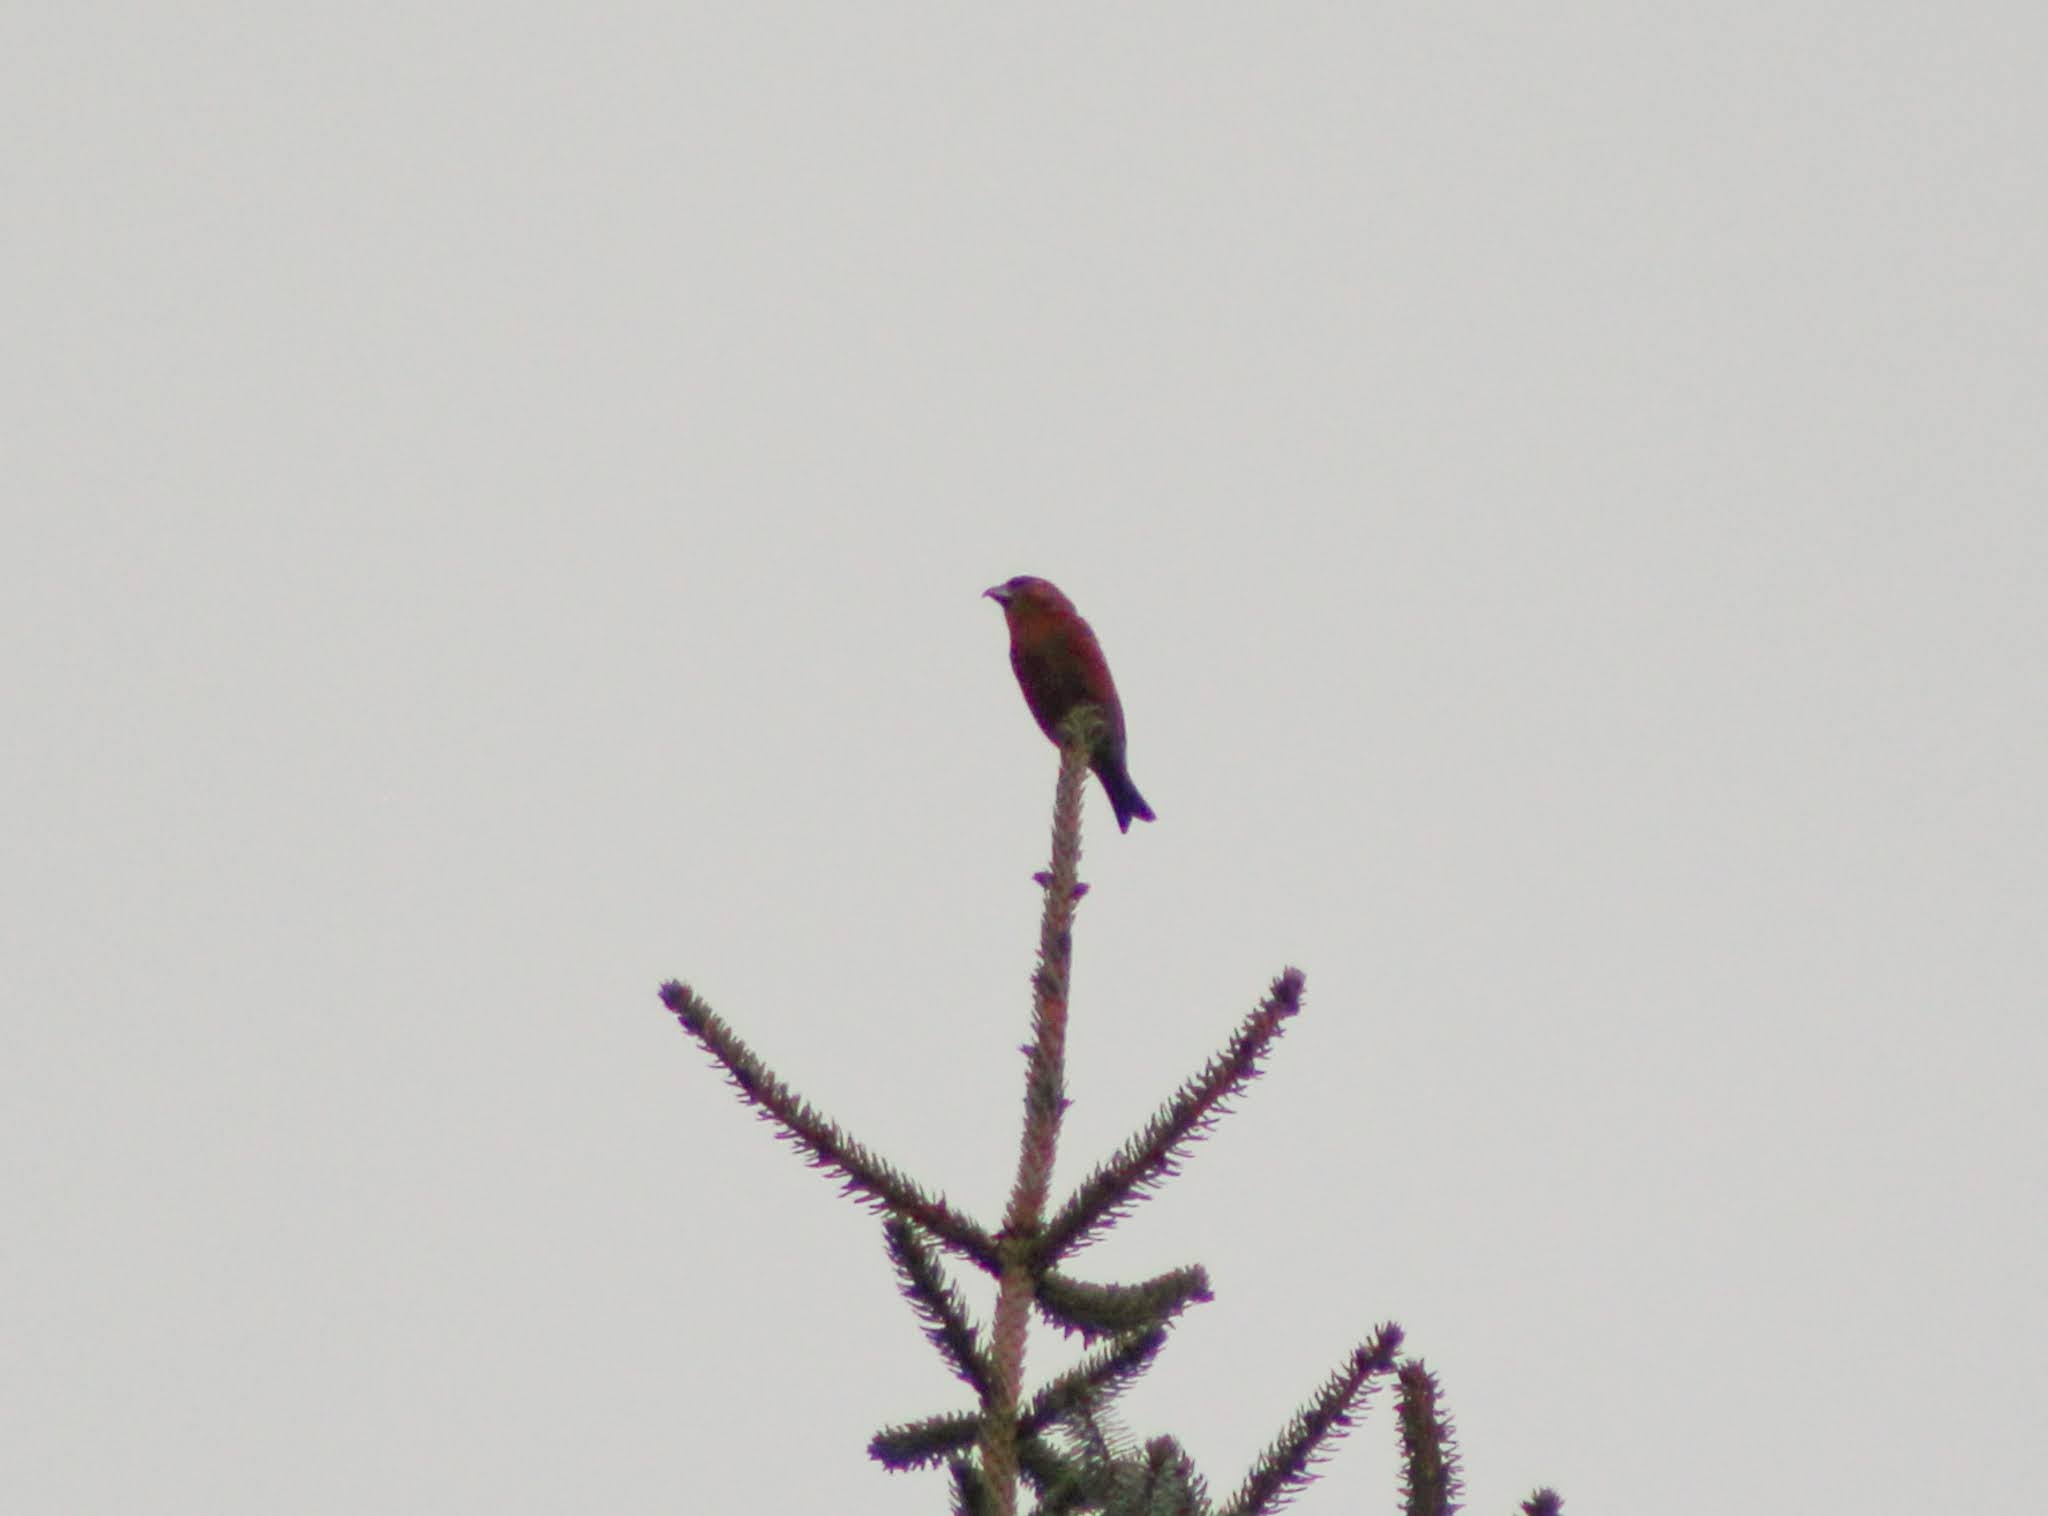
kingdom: Animalia
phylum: Chordata
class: Aves
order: Passeriformes
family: Fringillidae
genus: Loxia
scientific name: Loxia curvirostra
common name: Red crossbill
